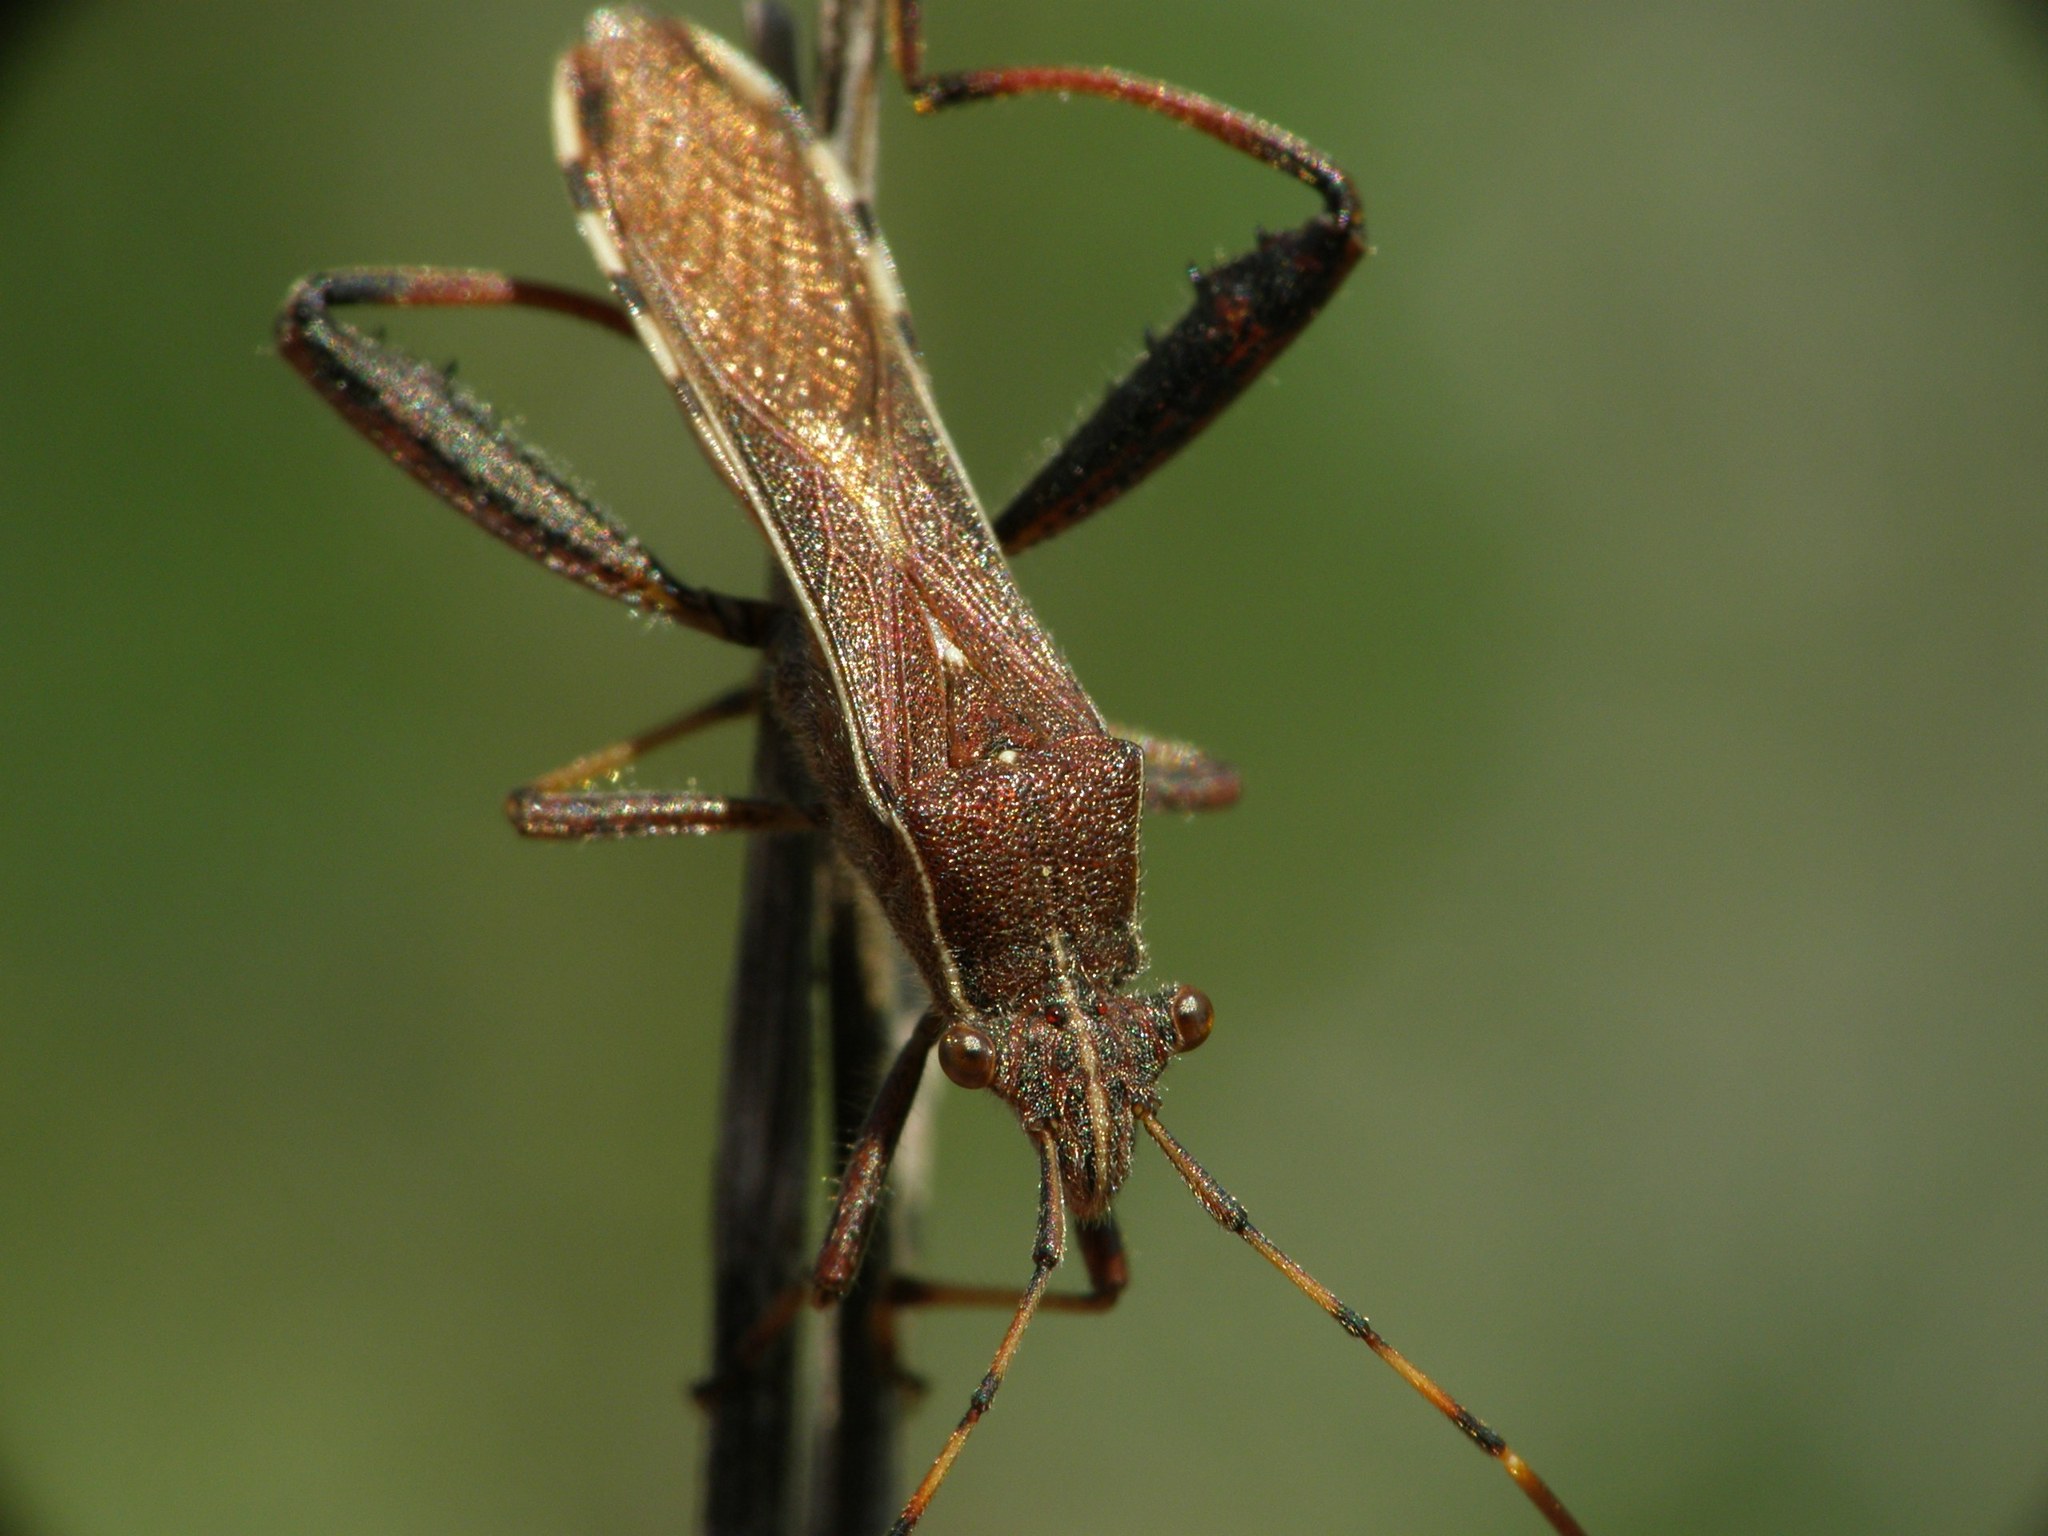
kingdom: Animalia
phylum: Arthropoda
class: Insecta
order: Hemiptera
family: Alydidae
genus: Camptopus
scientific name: Camptopus lateralis
